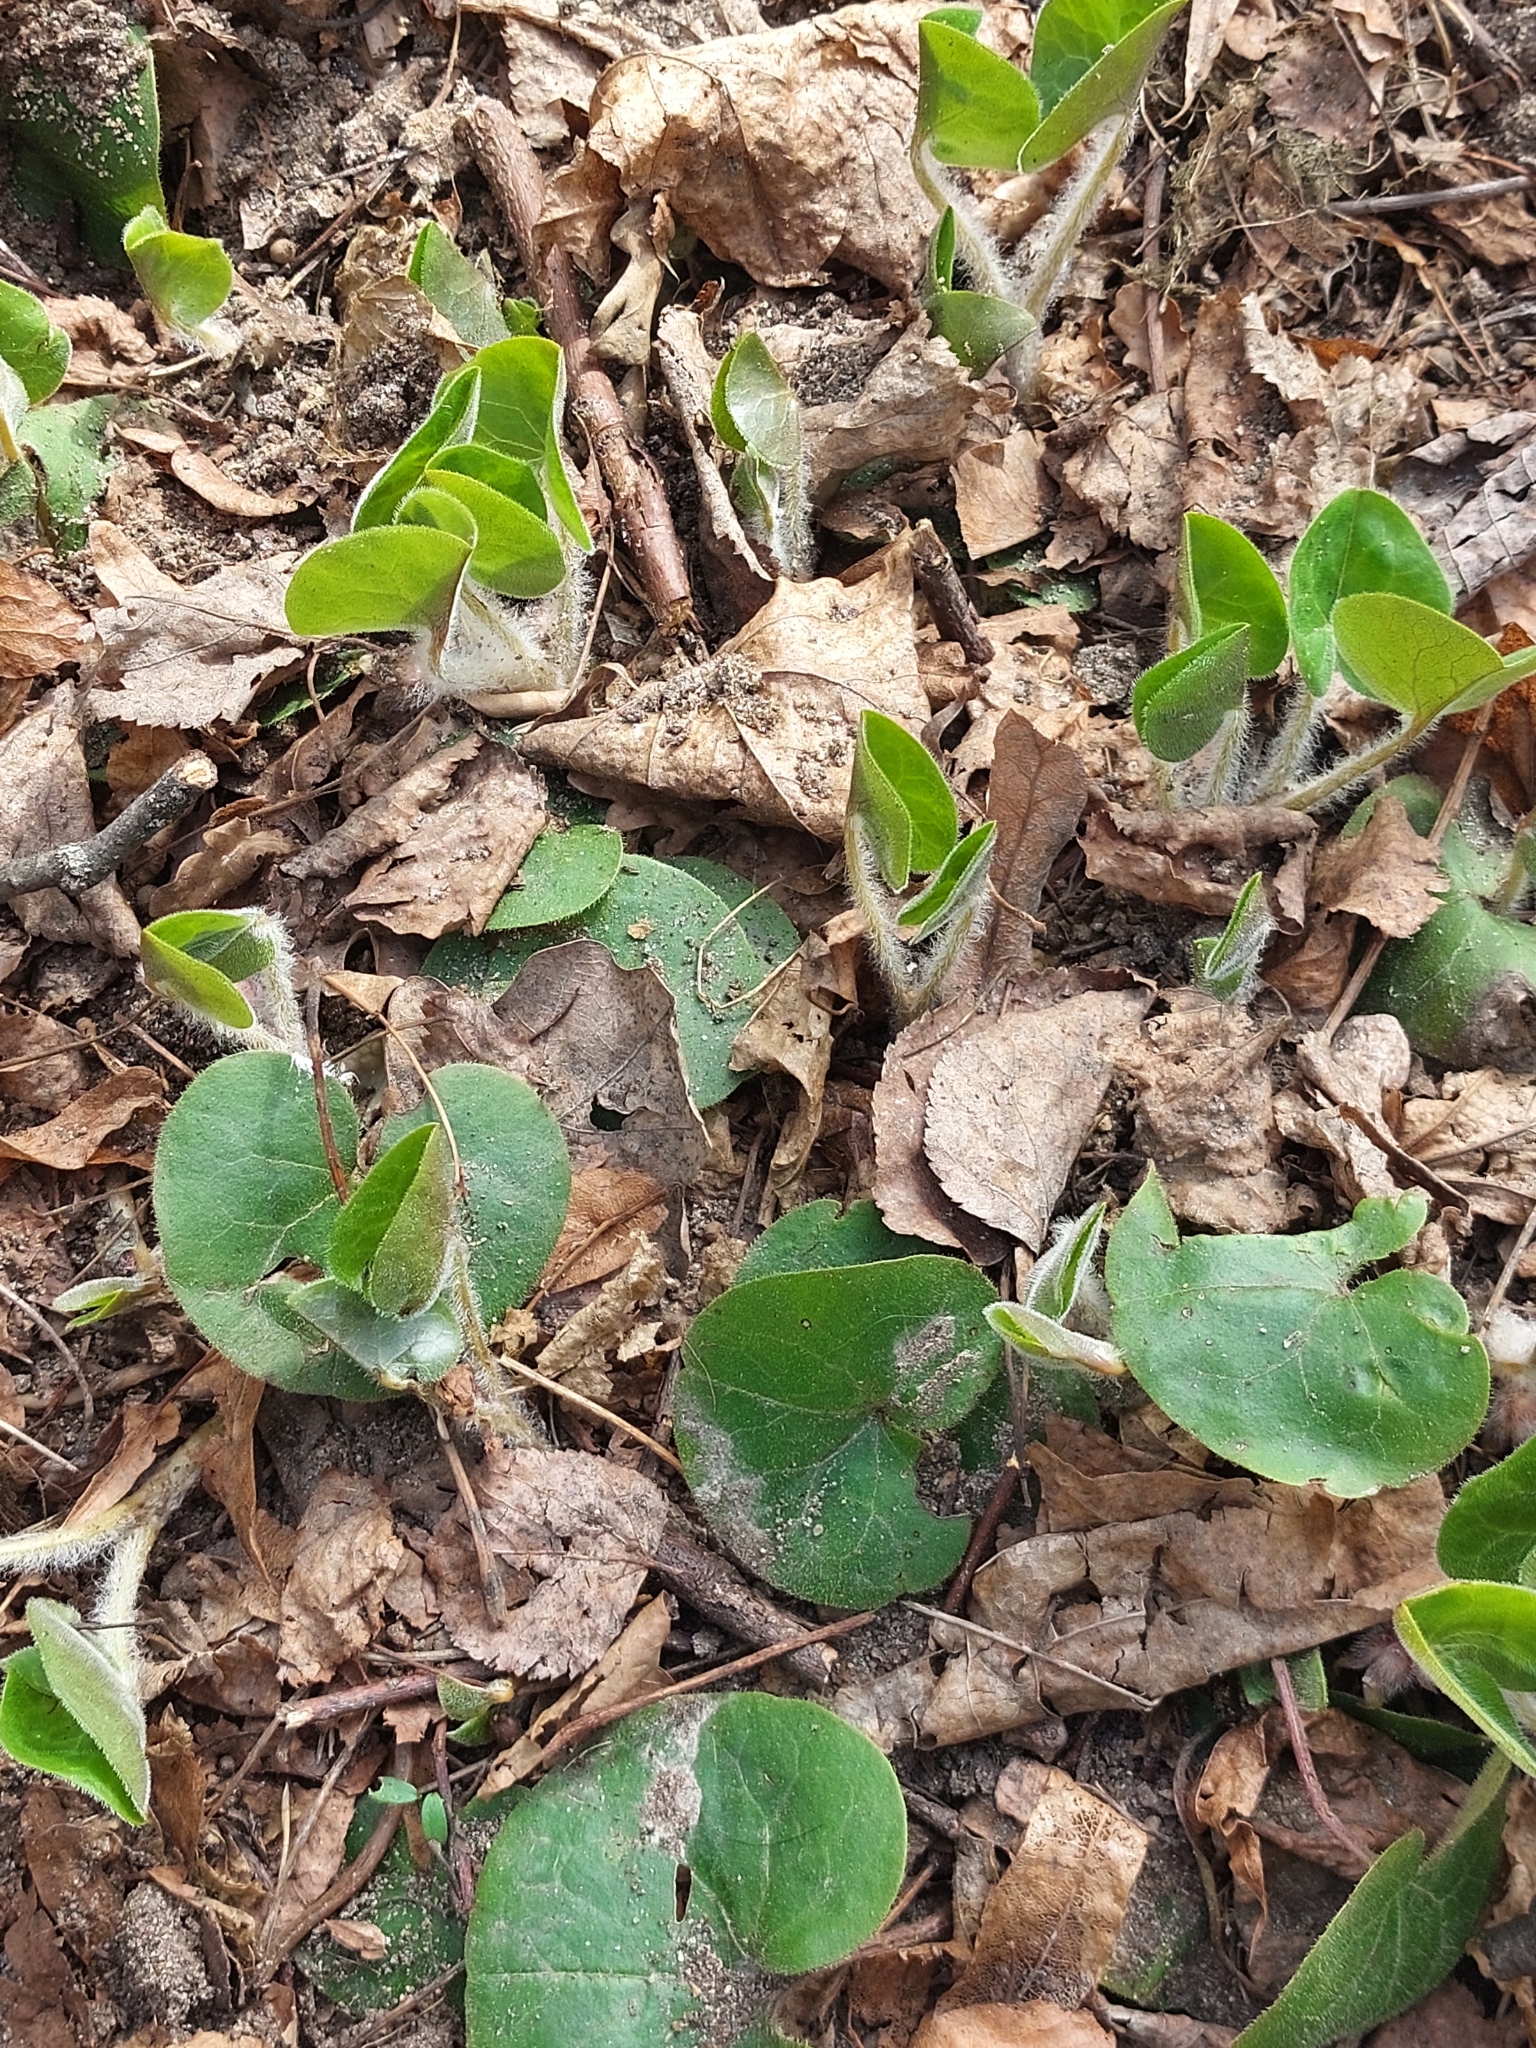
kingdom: Plantae
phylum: Tracheophyta
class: Magnoliopsida
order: Piperales
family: Aristolochiaceae
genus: Asarum
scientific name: Asarum europaeum
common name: Asarabacca
